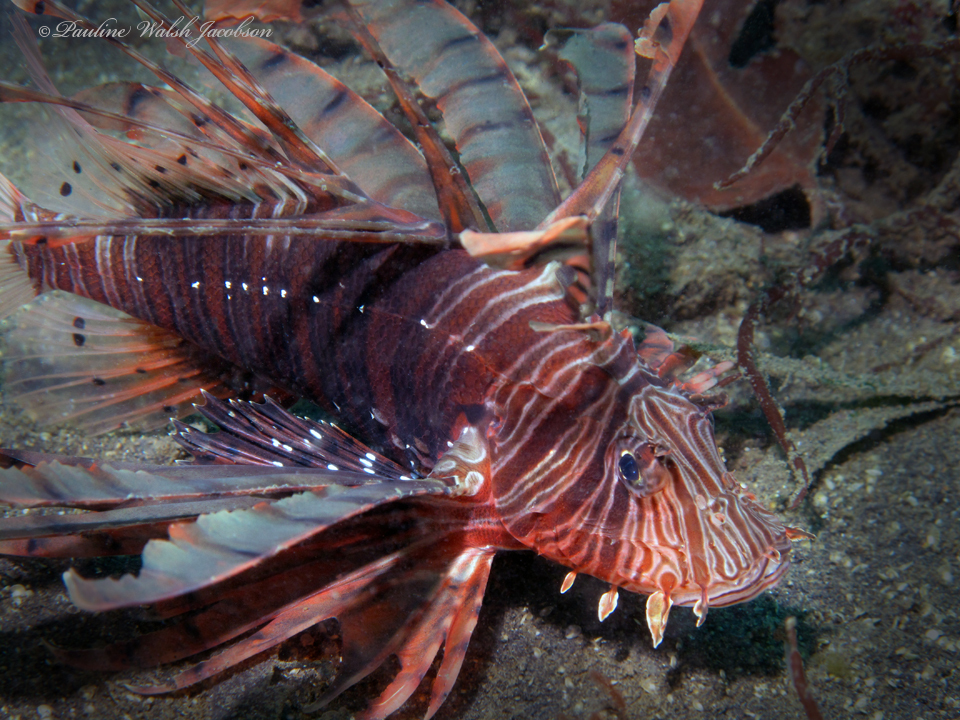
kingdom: Animalia
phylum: Chordata
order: Scorpaeniformes
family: Scorpaenidae
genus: Pterois
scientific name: Pterois russelii
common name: Plaintail firefish
